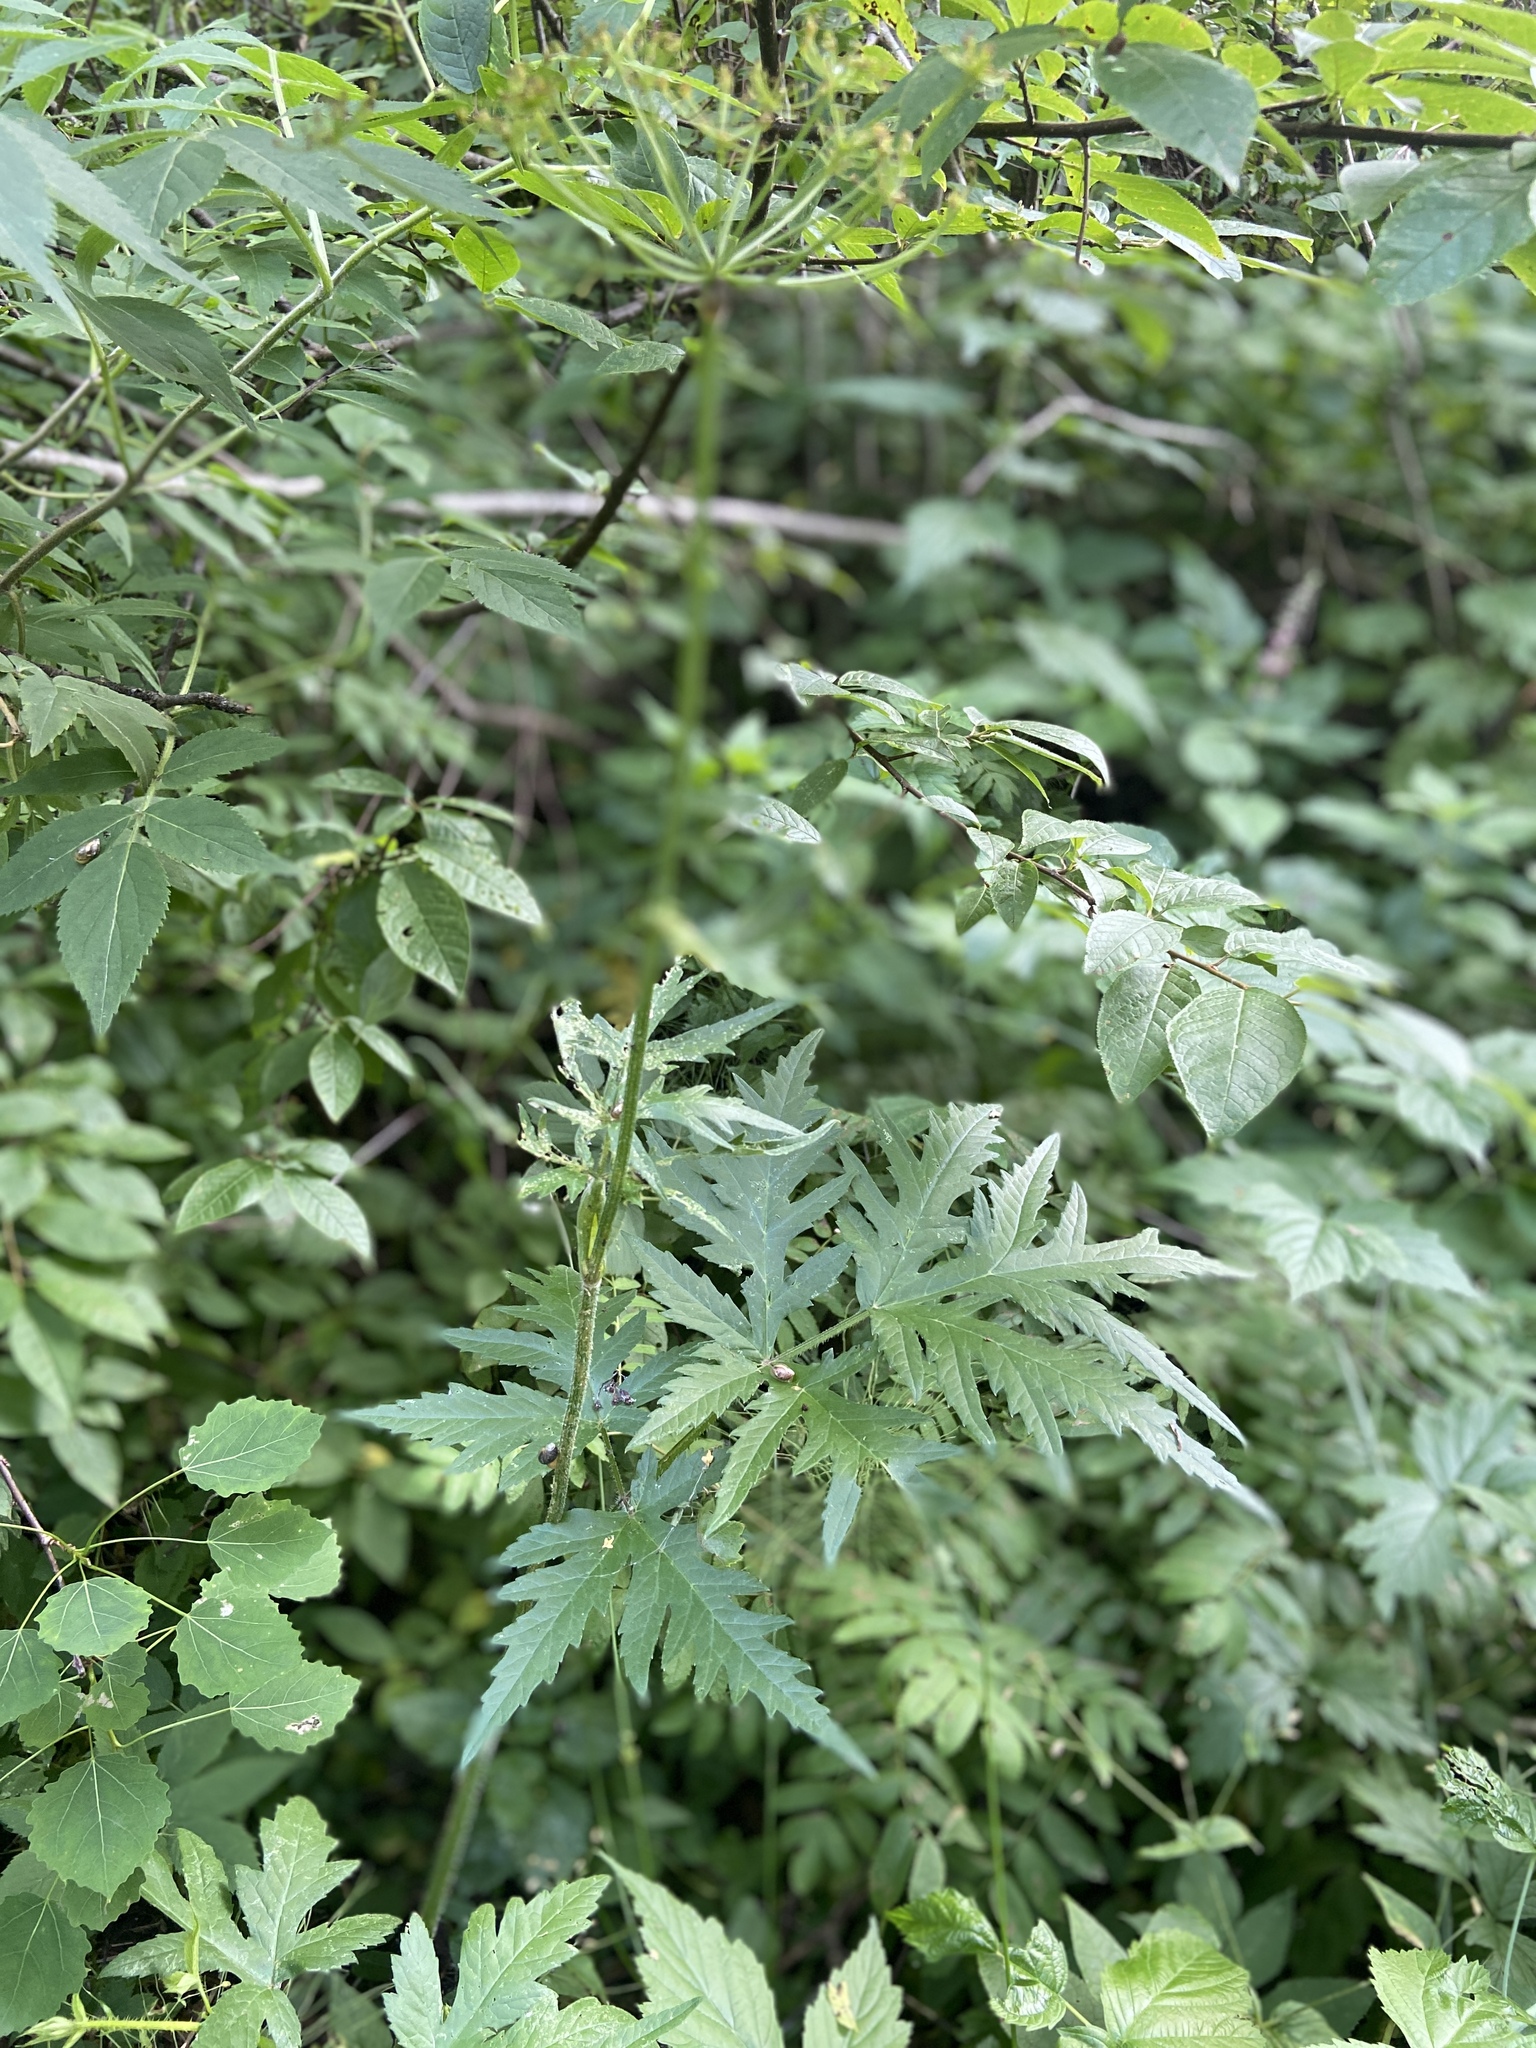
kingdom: Plantae
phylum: Tracheophyta
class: Magnoliopsida
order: Apiales
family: Apiaceae
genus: Heracleum
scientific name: Heracleum sphondylium
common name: Hogweed
